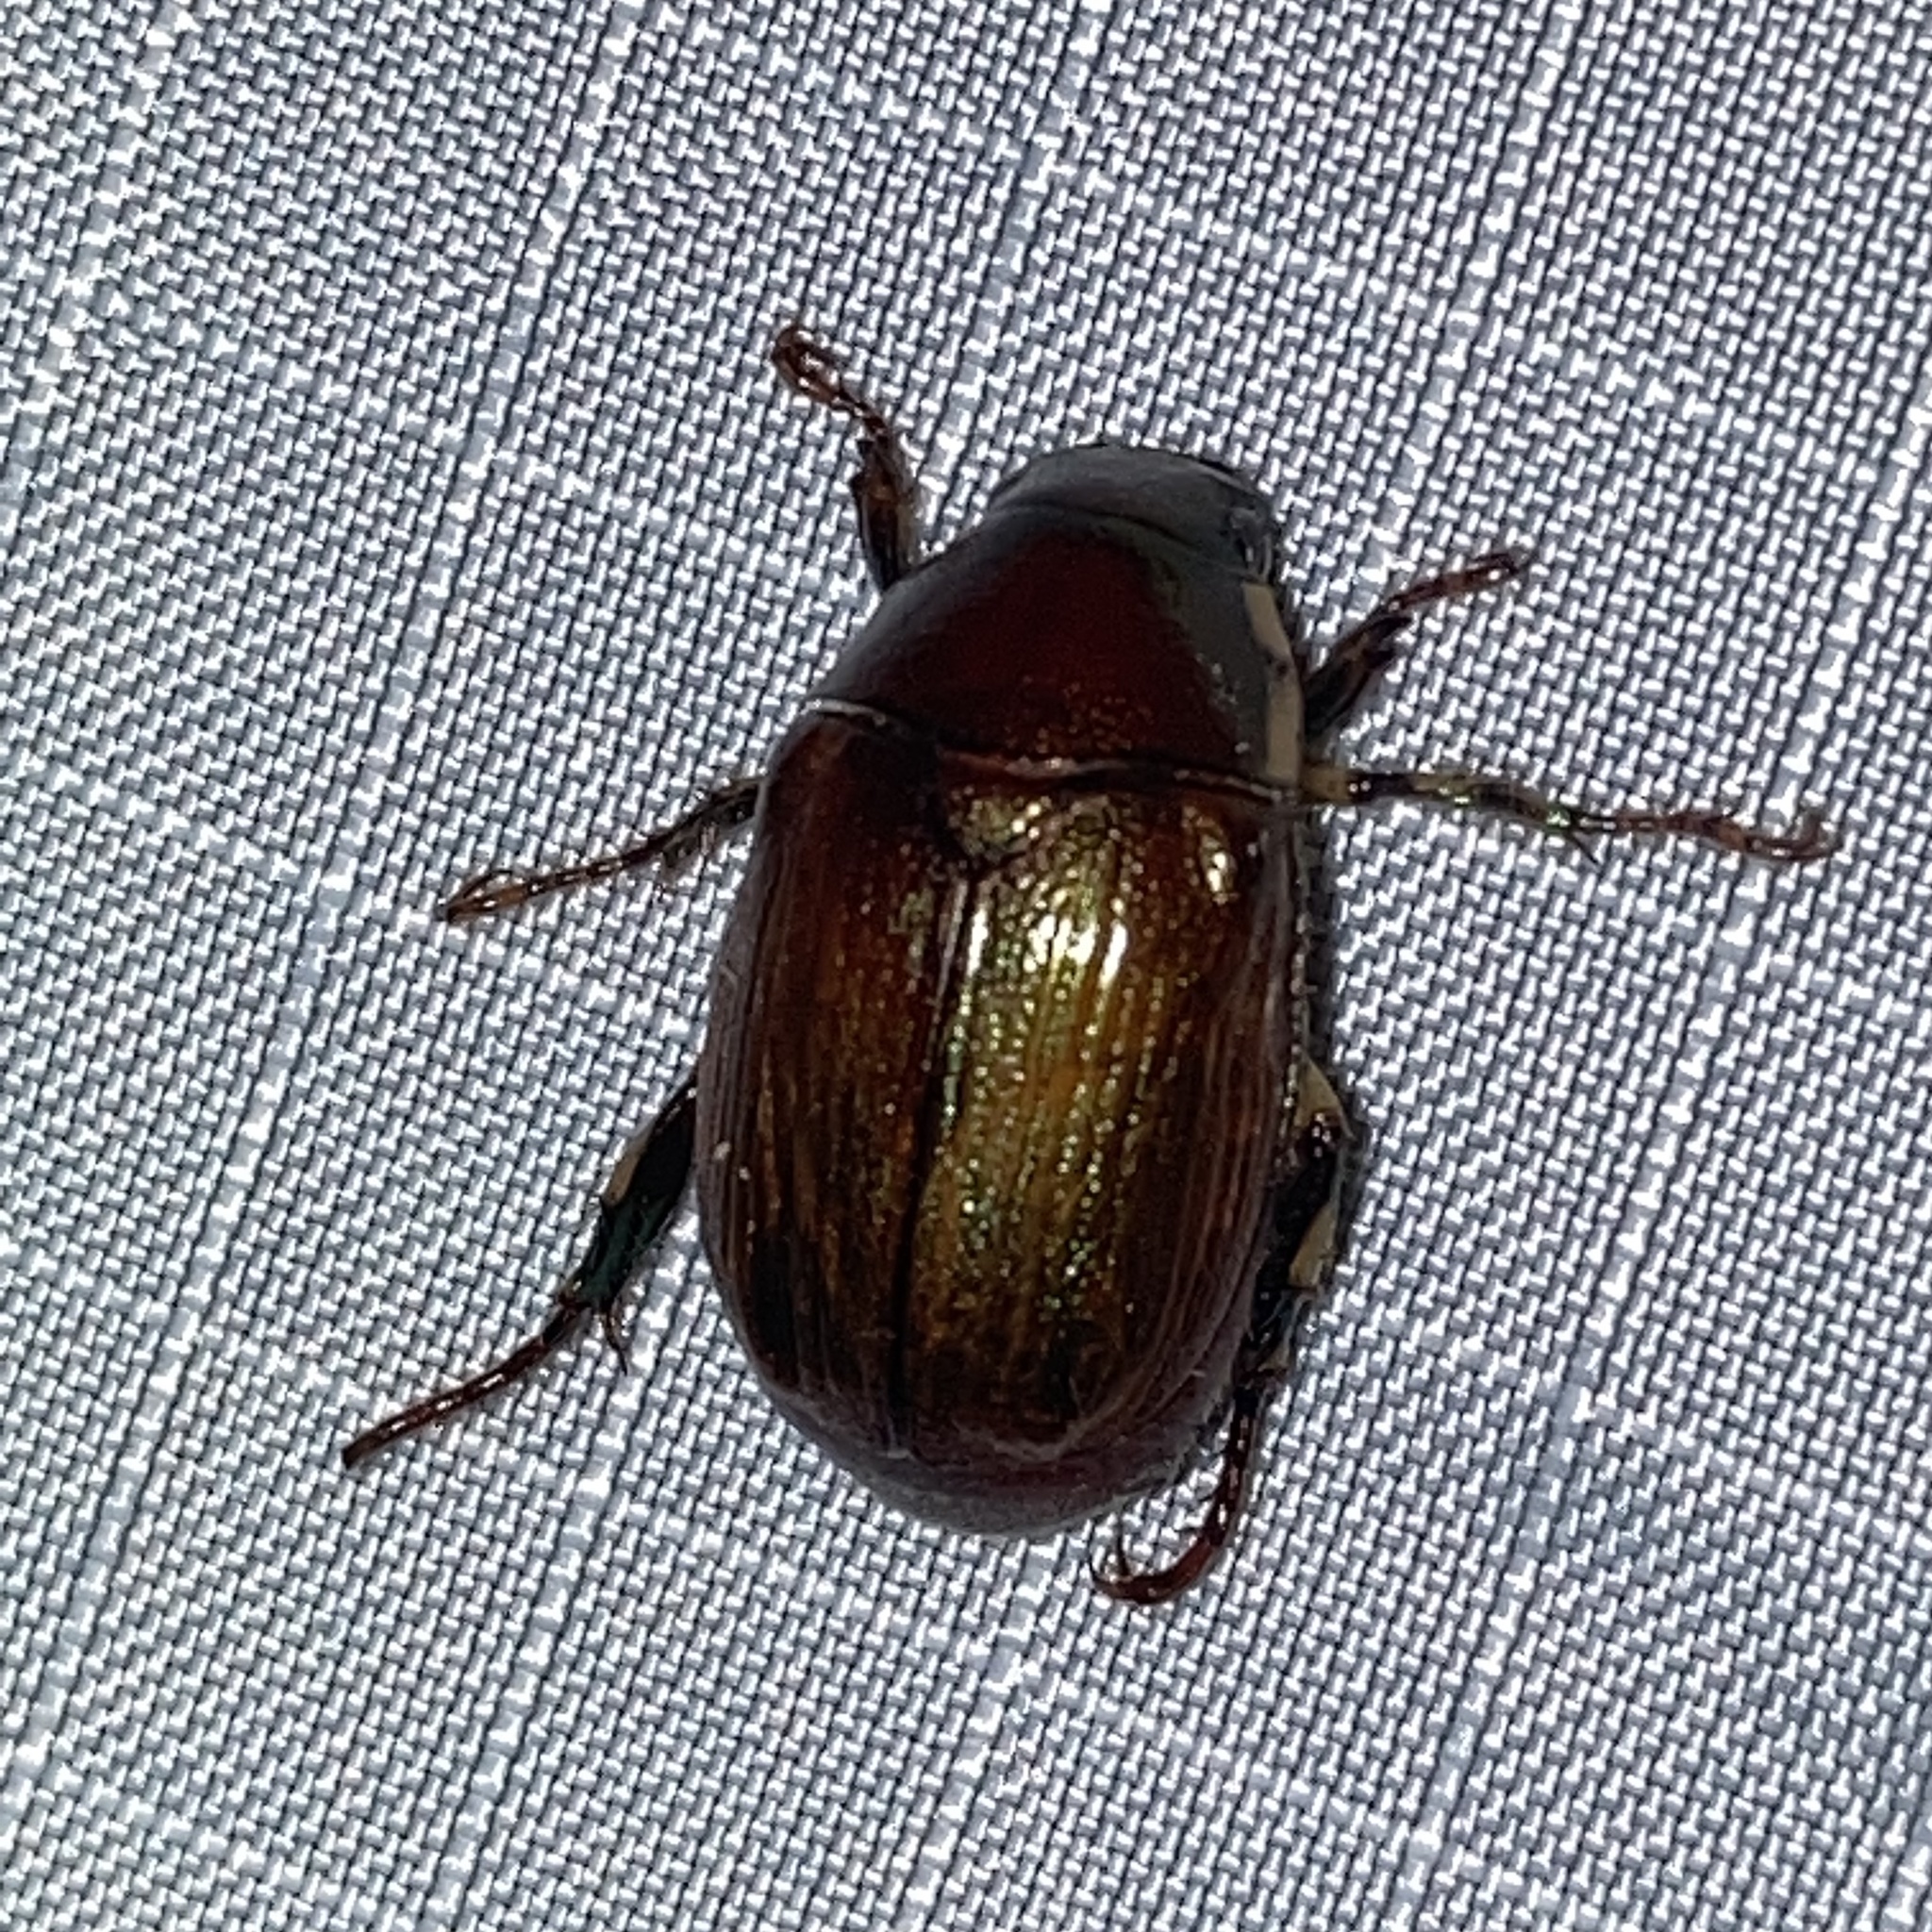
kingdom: Animalia
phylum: Arthropoda
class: Insecta
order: Coleoptera
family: Scarabaeidae
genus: Callistethus
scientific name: Callistethus marginatus
